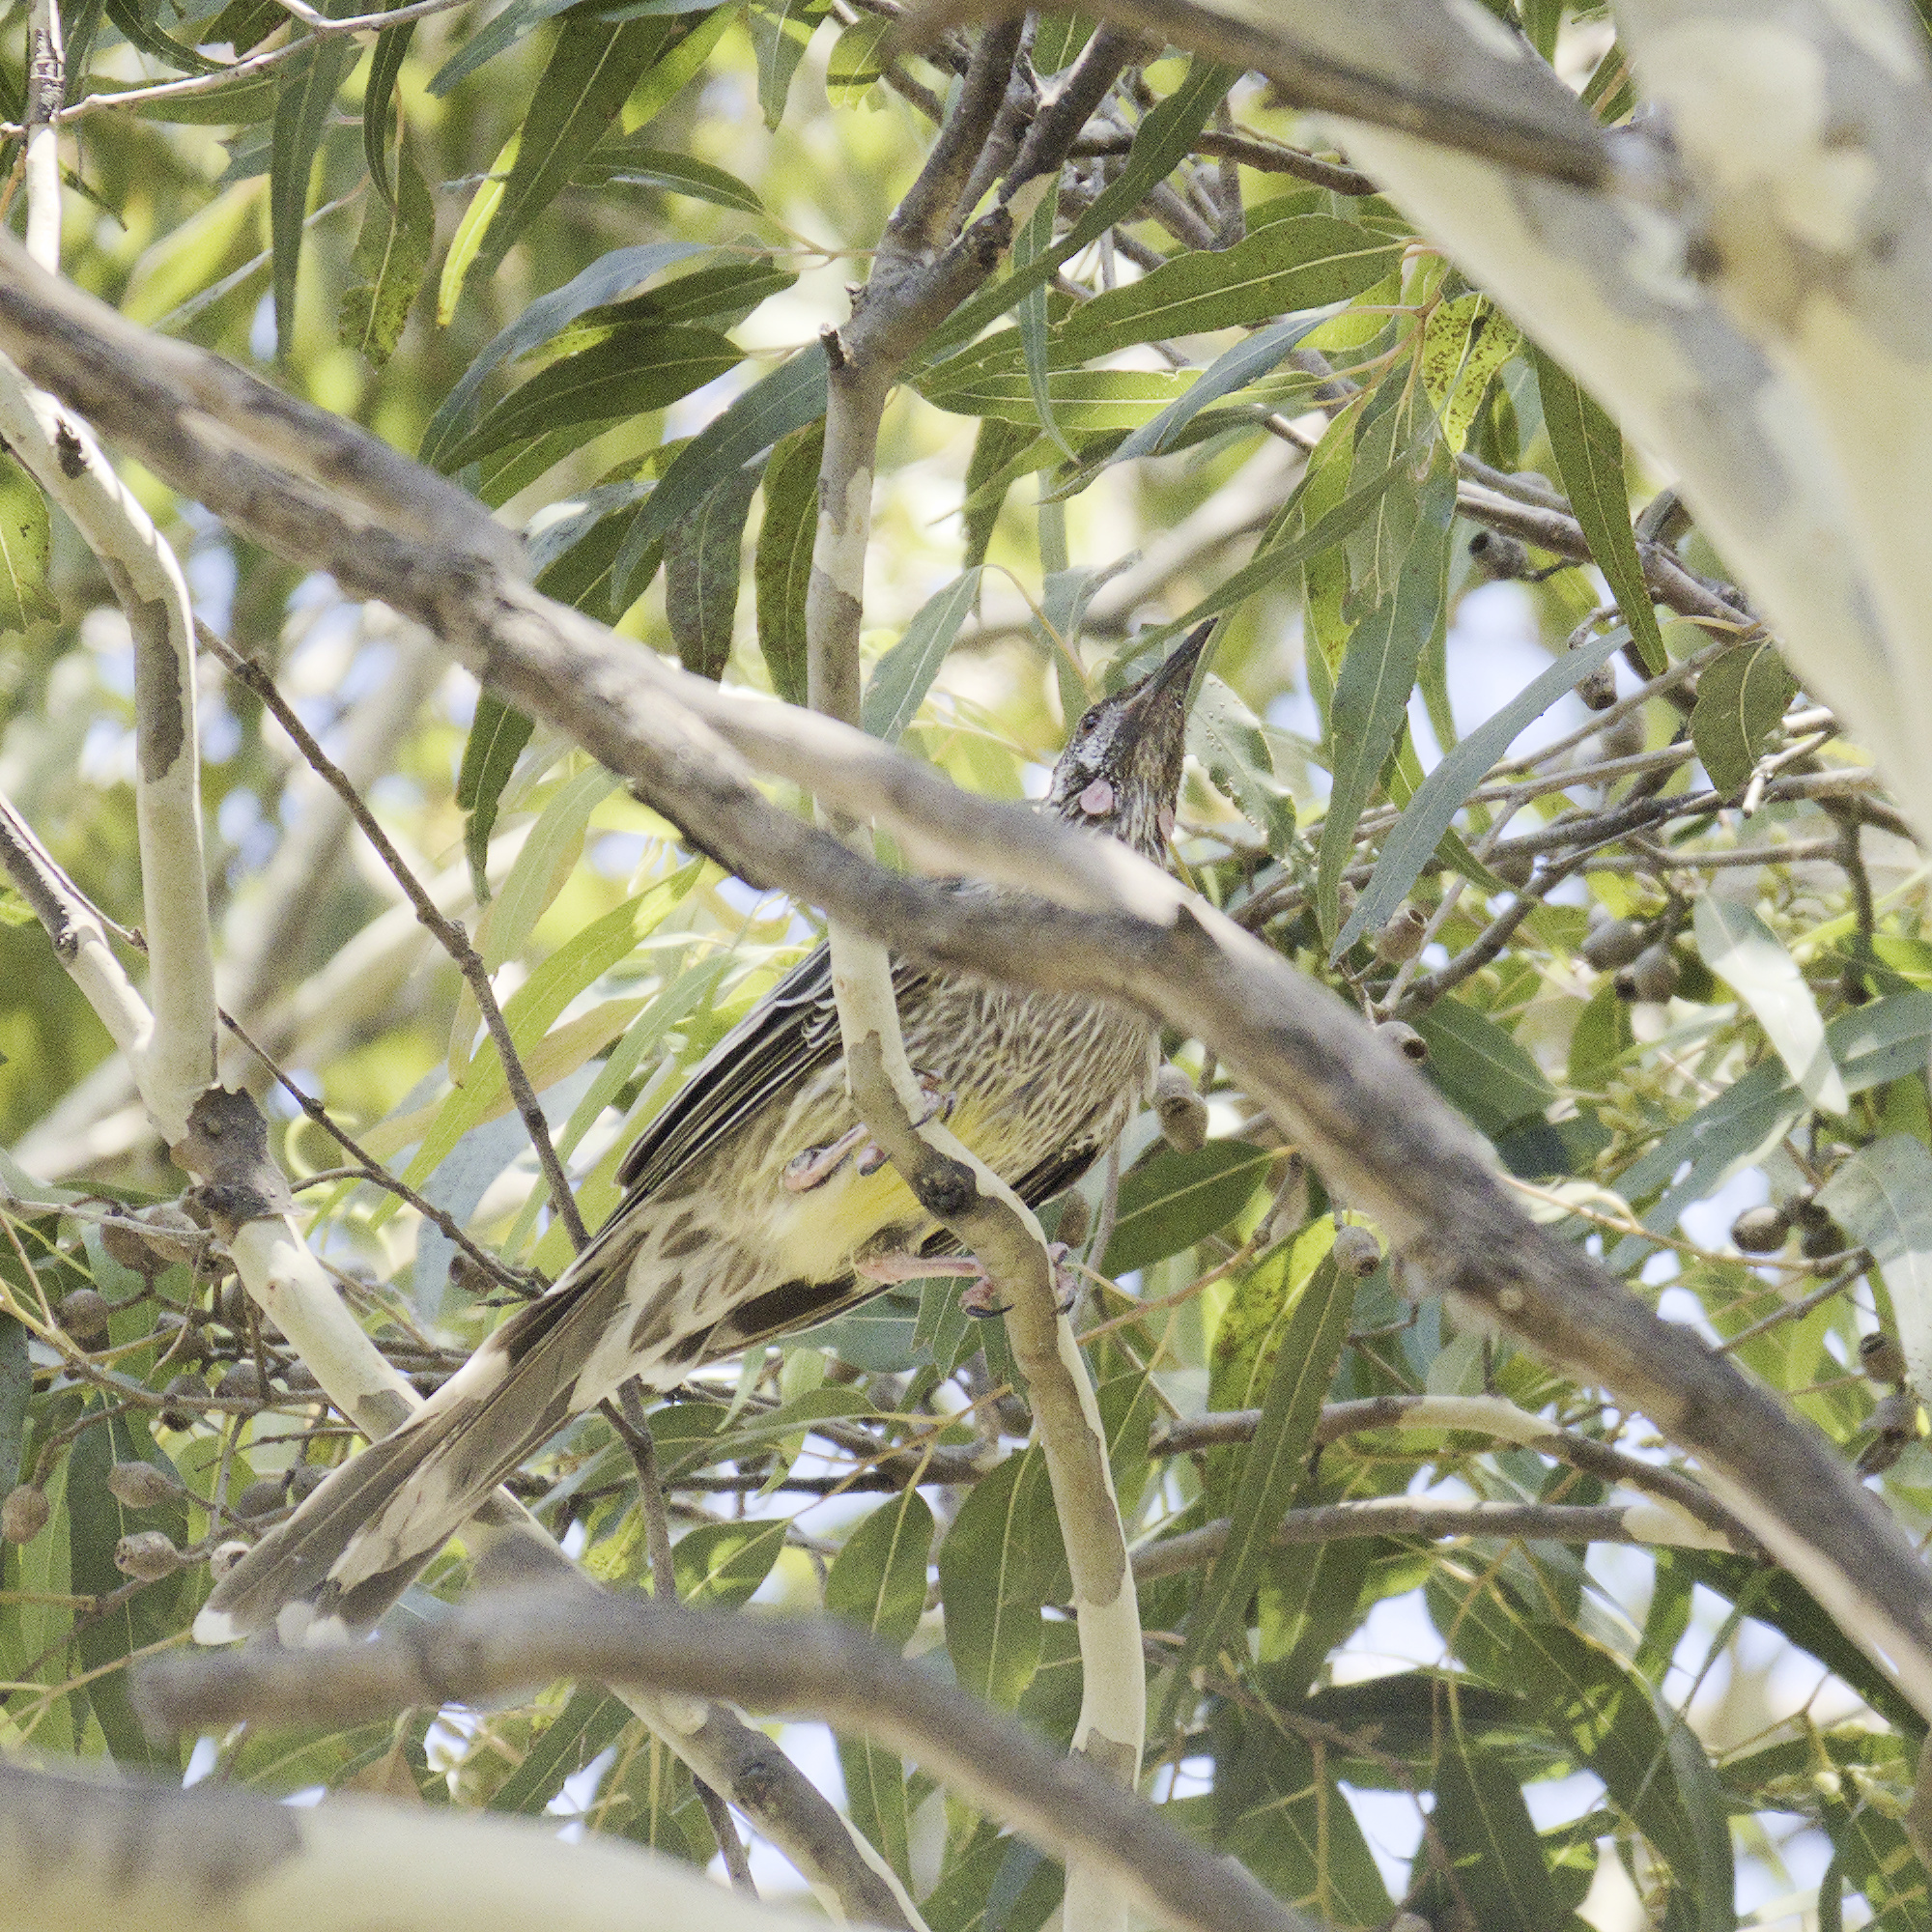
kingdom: Animalia
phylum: Chordata
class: Aves
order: Passeriformes
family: Meliphagidae
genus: Anthochaera
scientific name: Anthochaera carunculata
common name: Red wattlebird
